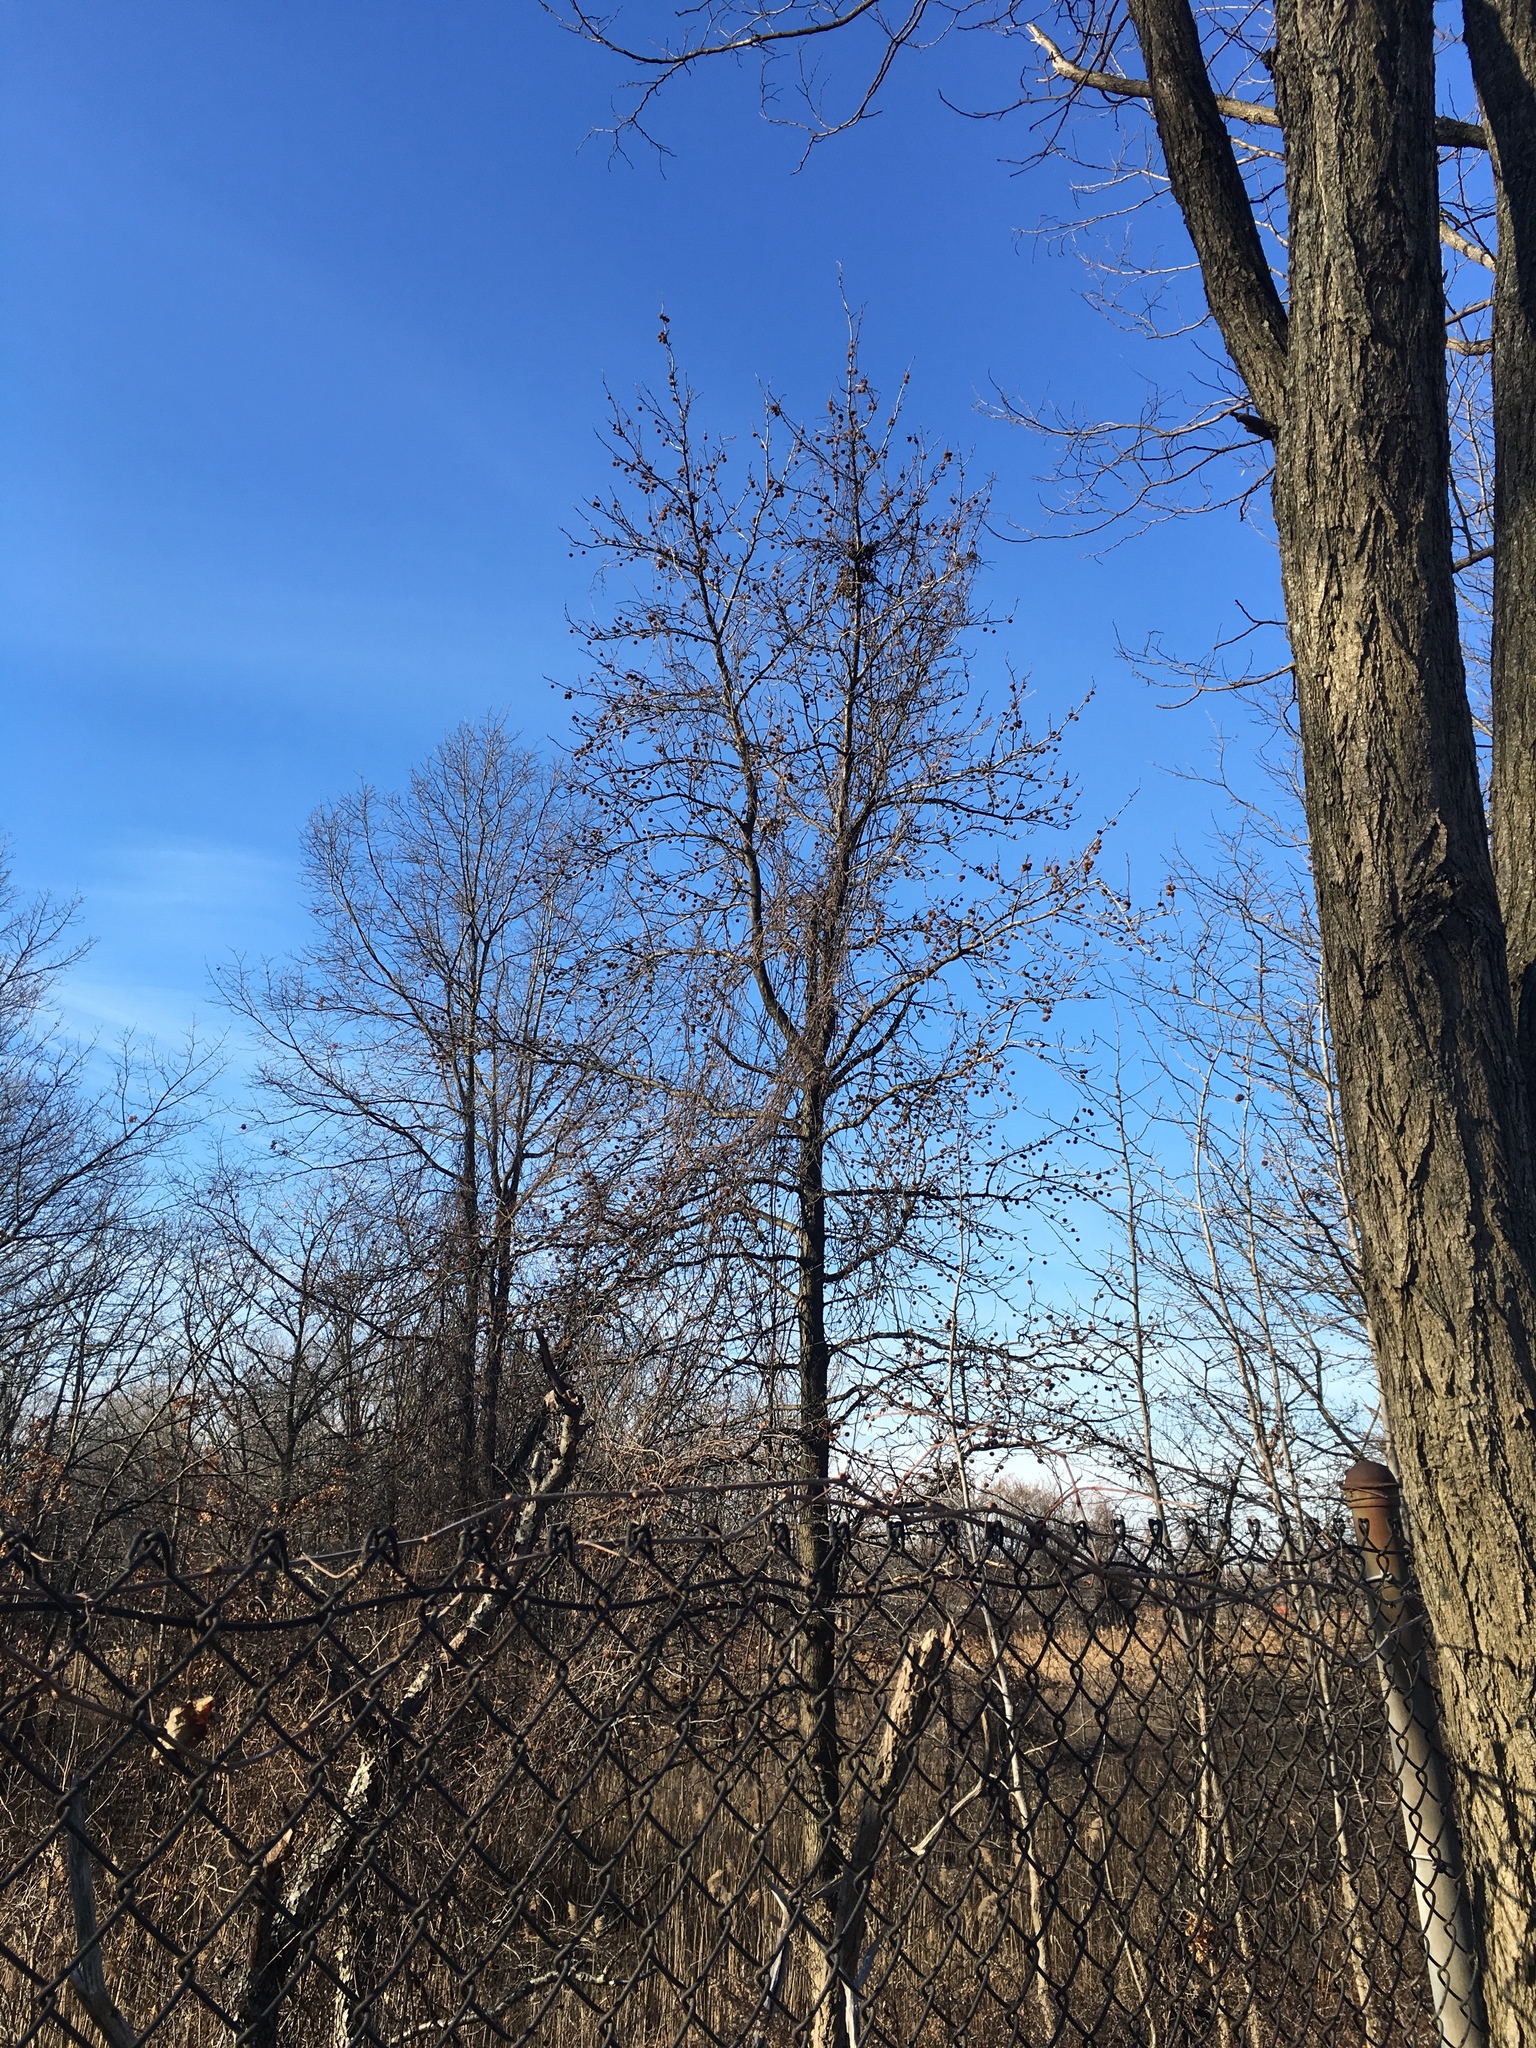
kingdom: Plantae
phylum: Tracheophyta
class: Magnoliopsida
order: Saxifragales
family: Altingiaceae
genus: Liquidambar
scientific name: Liquidambar styraciflua
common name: Sweet gum
